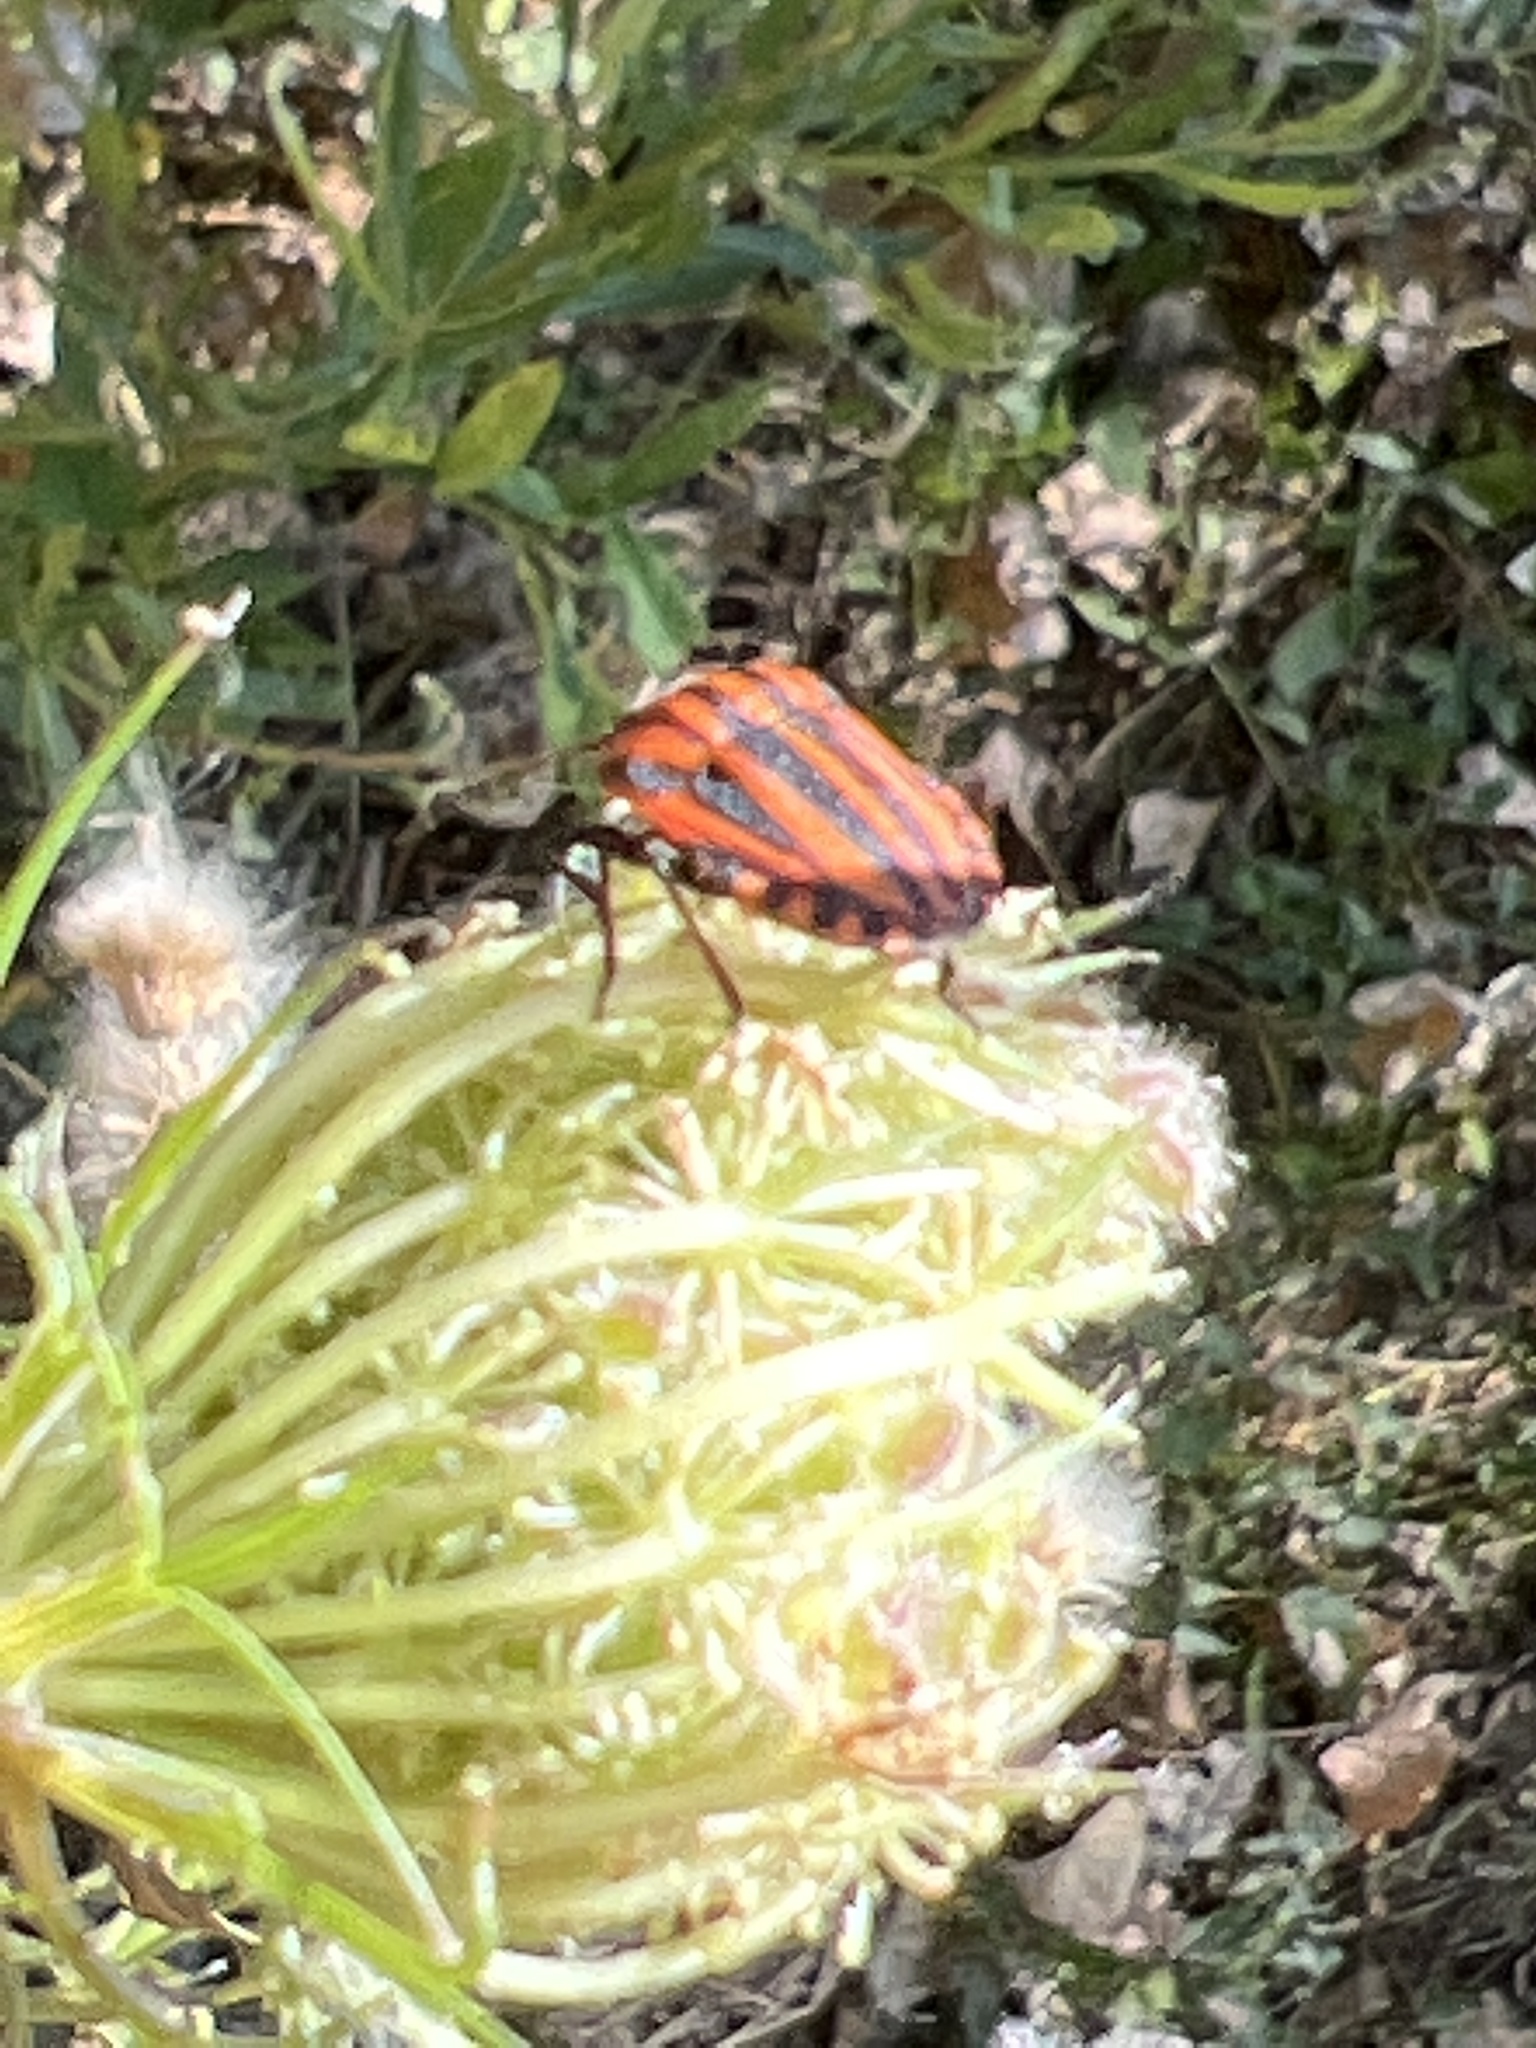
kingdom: Animalia
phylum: Arthropoda
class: Insecta
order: Hemiptera
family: Pentatomidae
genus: Graphosoma
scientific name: Graphosoma italicum
